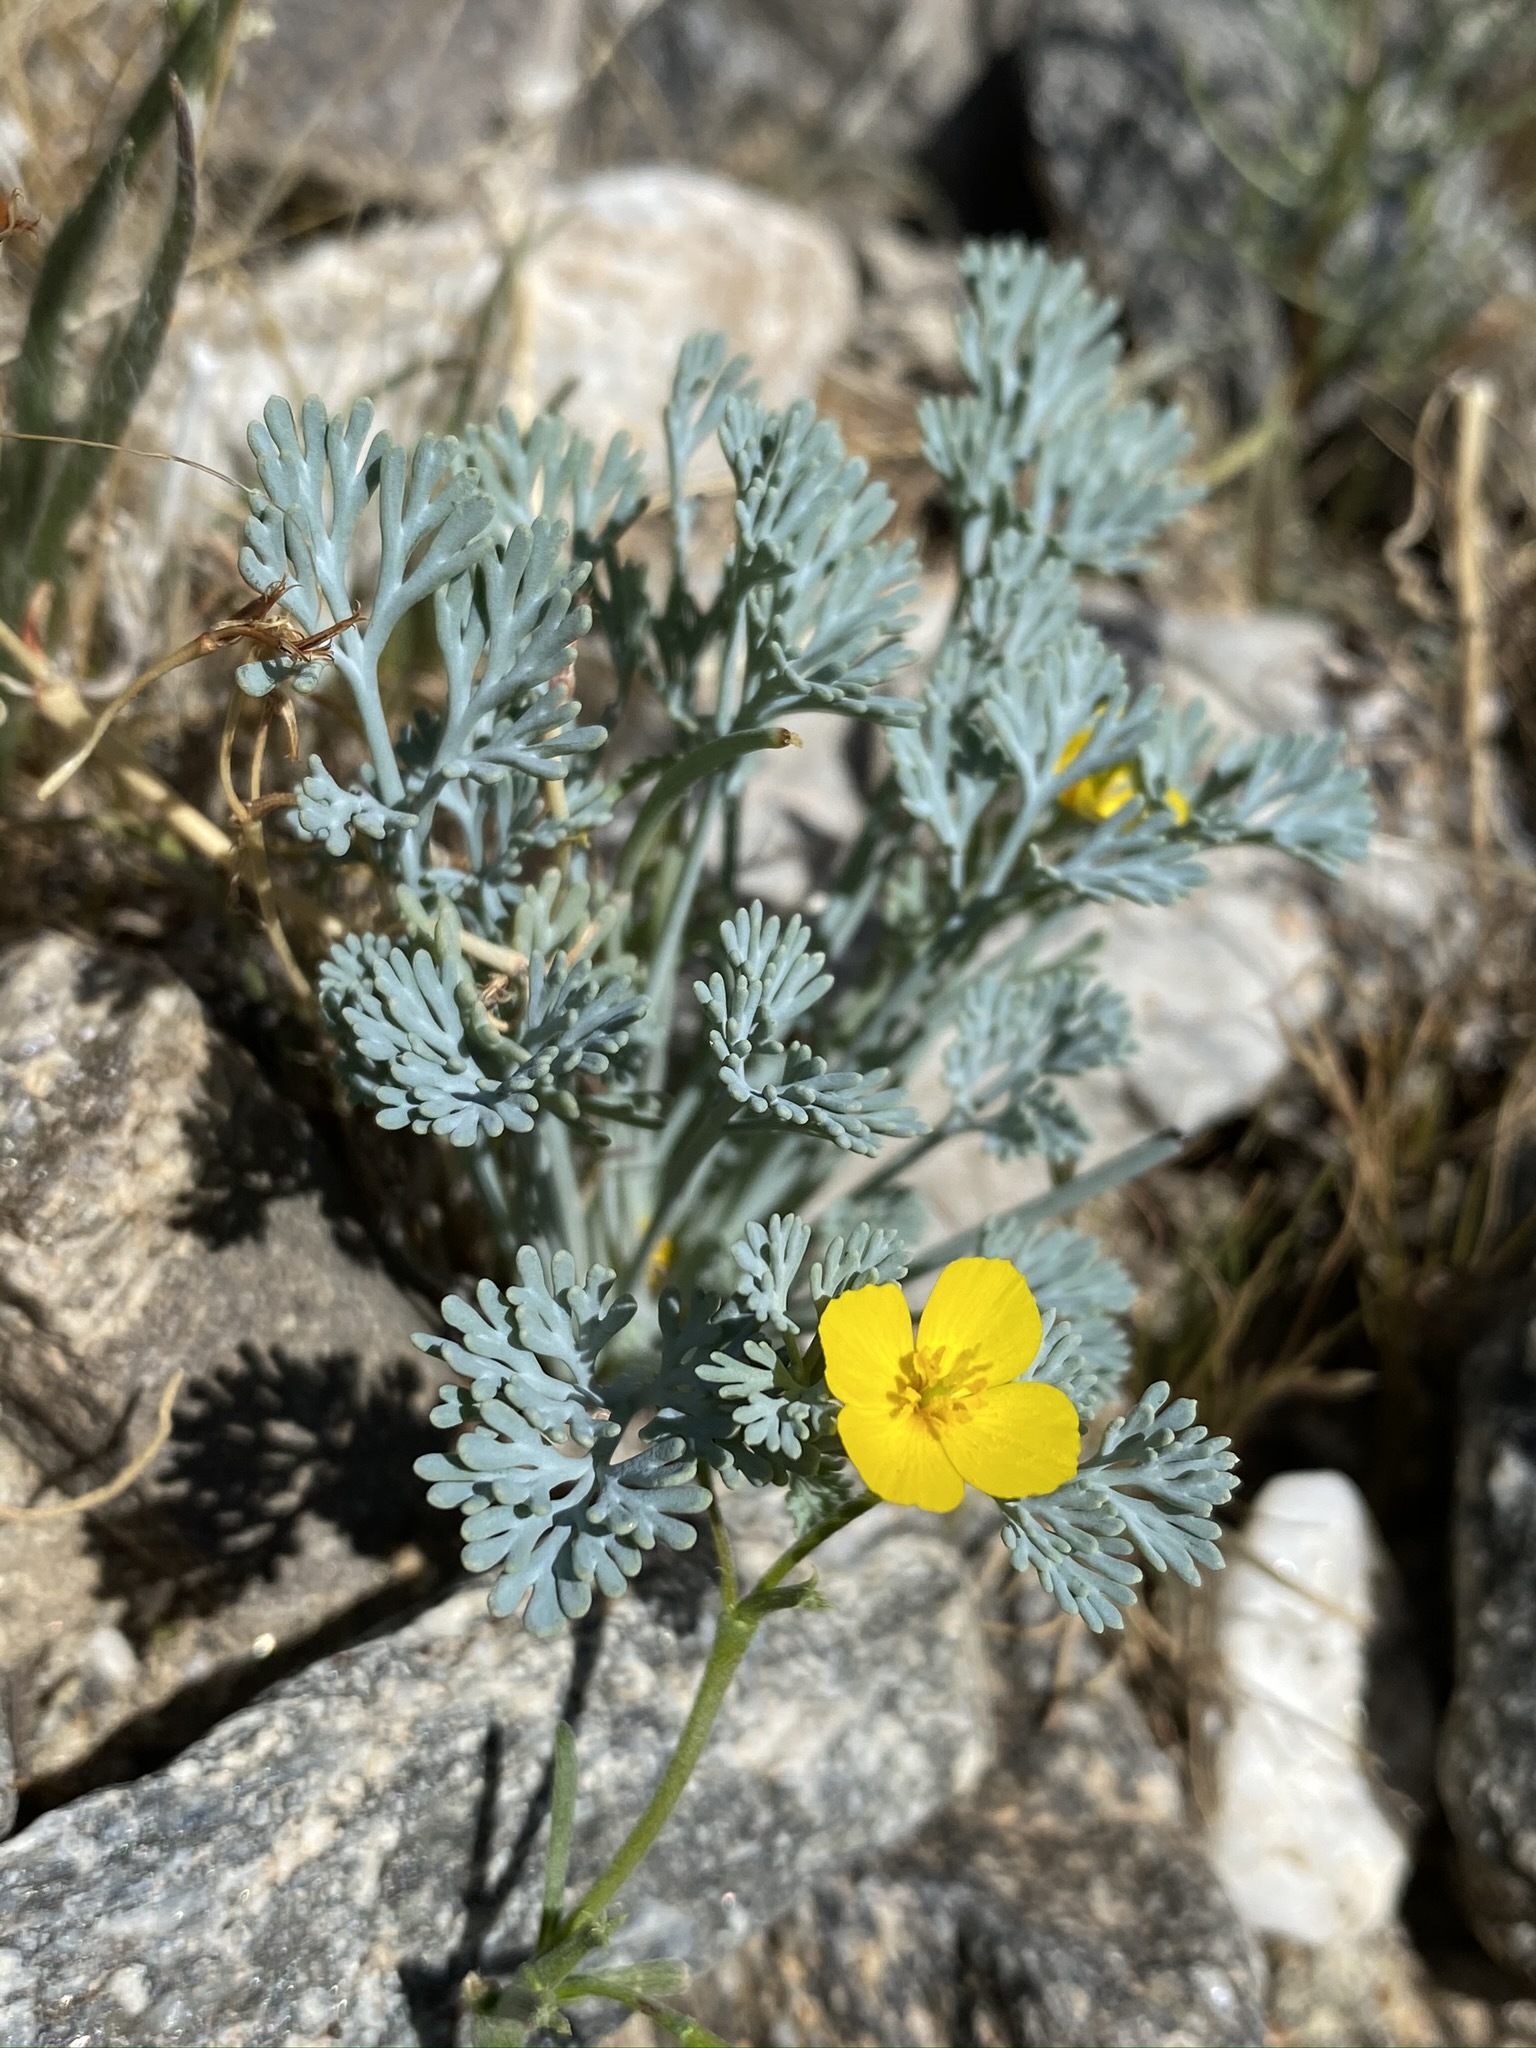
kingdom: Plantae
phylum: Tracheophyta
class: Magnoliopsida
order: Ranunculales
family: Papaveraceae
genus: Eschscholzia
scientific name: Eschscholzia minutiflora
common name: Small-flower california-poppy
